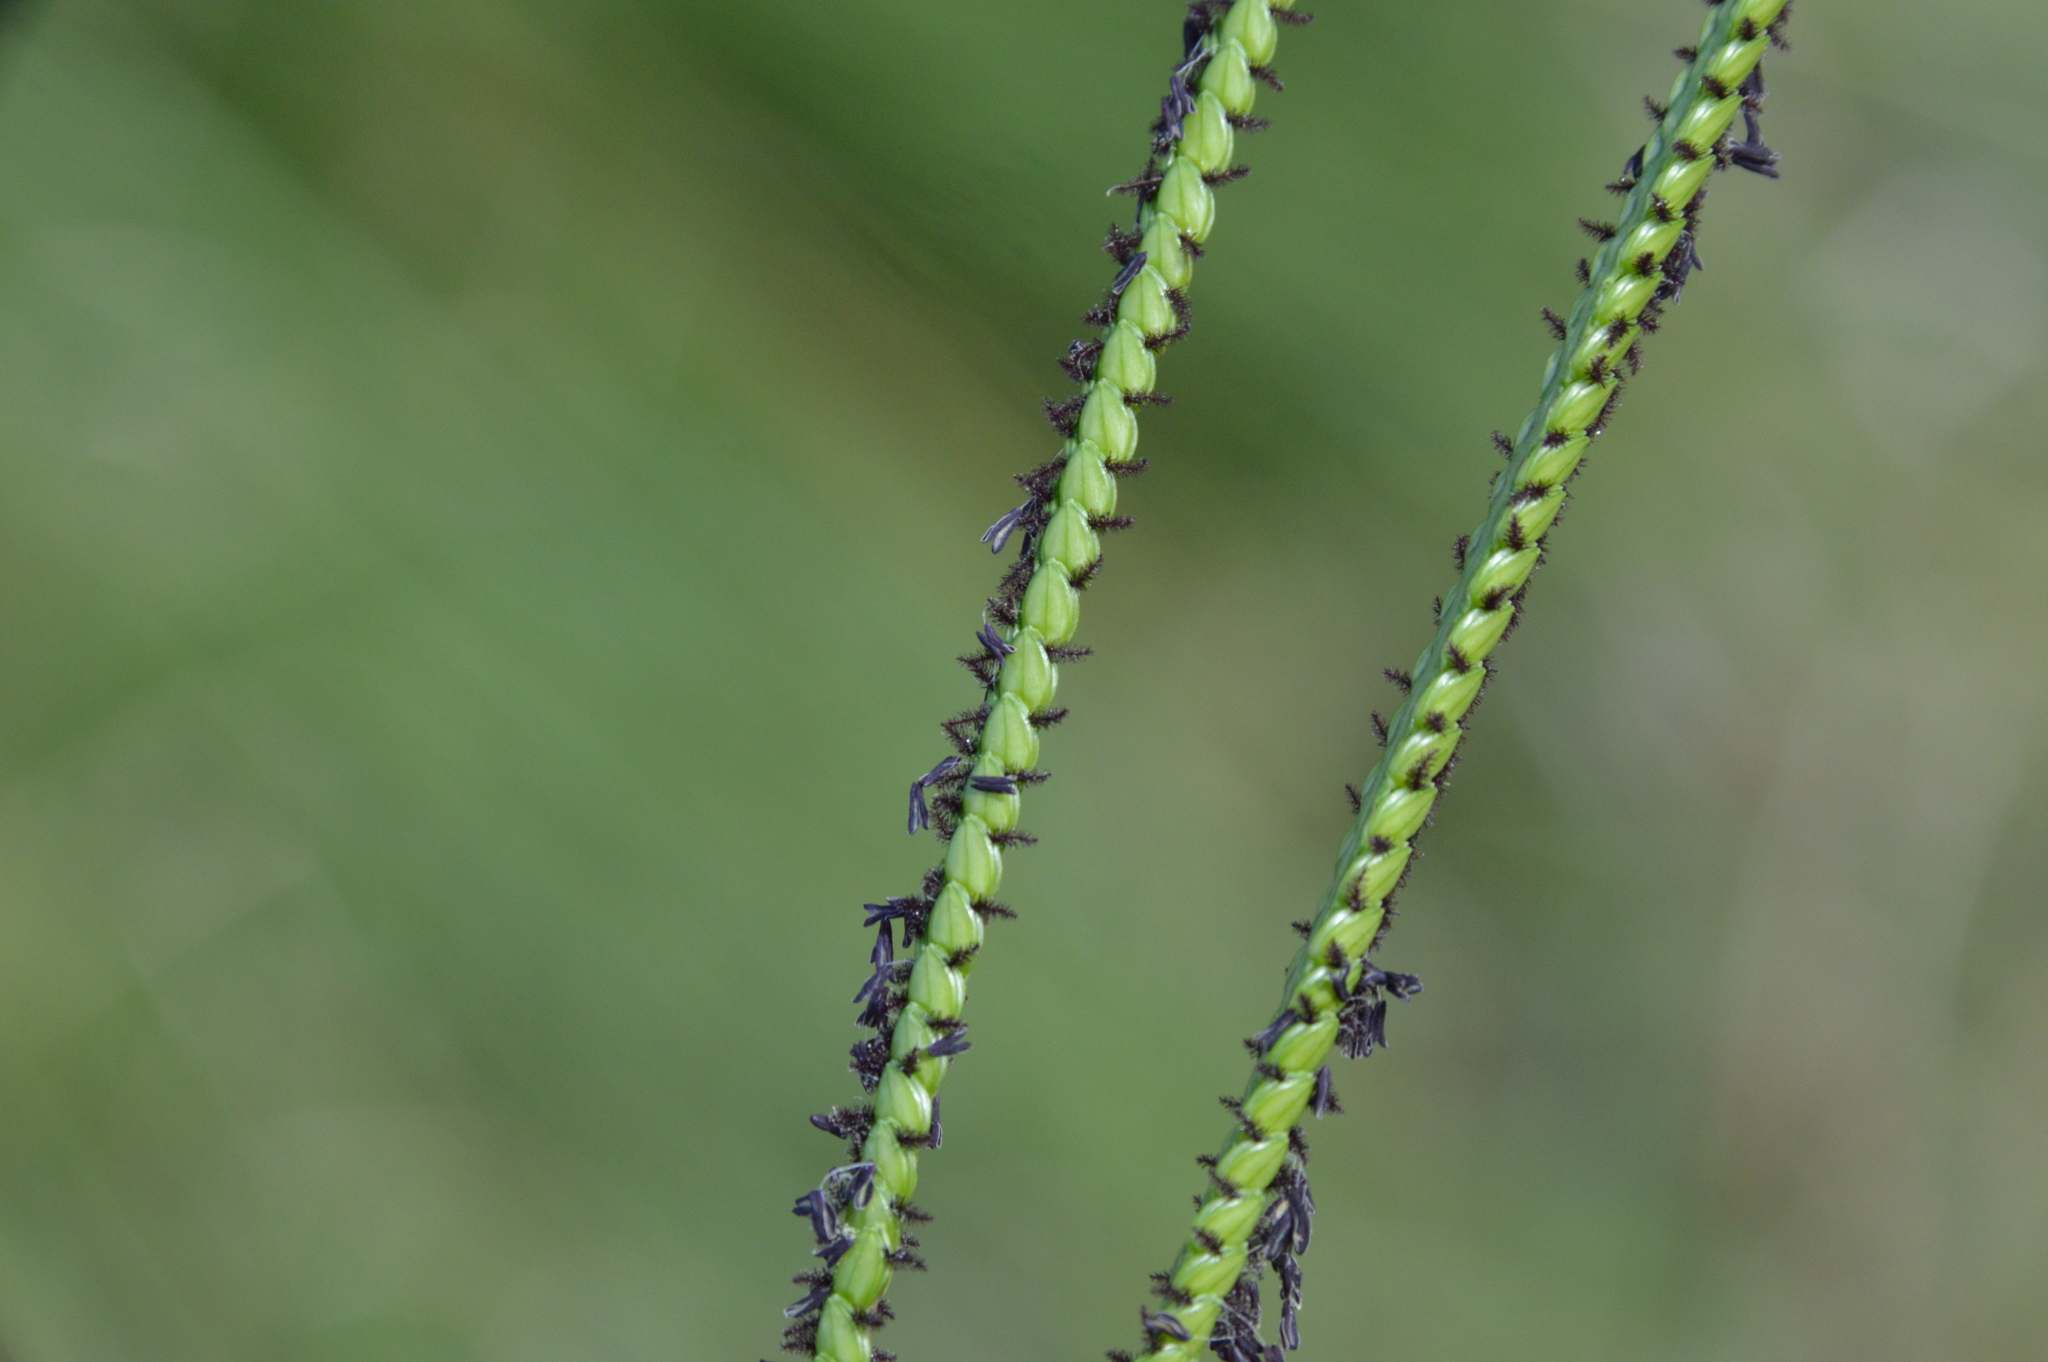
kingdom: Plantae
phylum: Tracheophyta
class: Liliopsida
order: Poales
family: Poaceae
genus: Paspalum
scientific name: Paspalum notatum
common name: Bahiagrass
